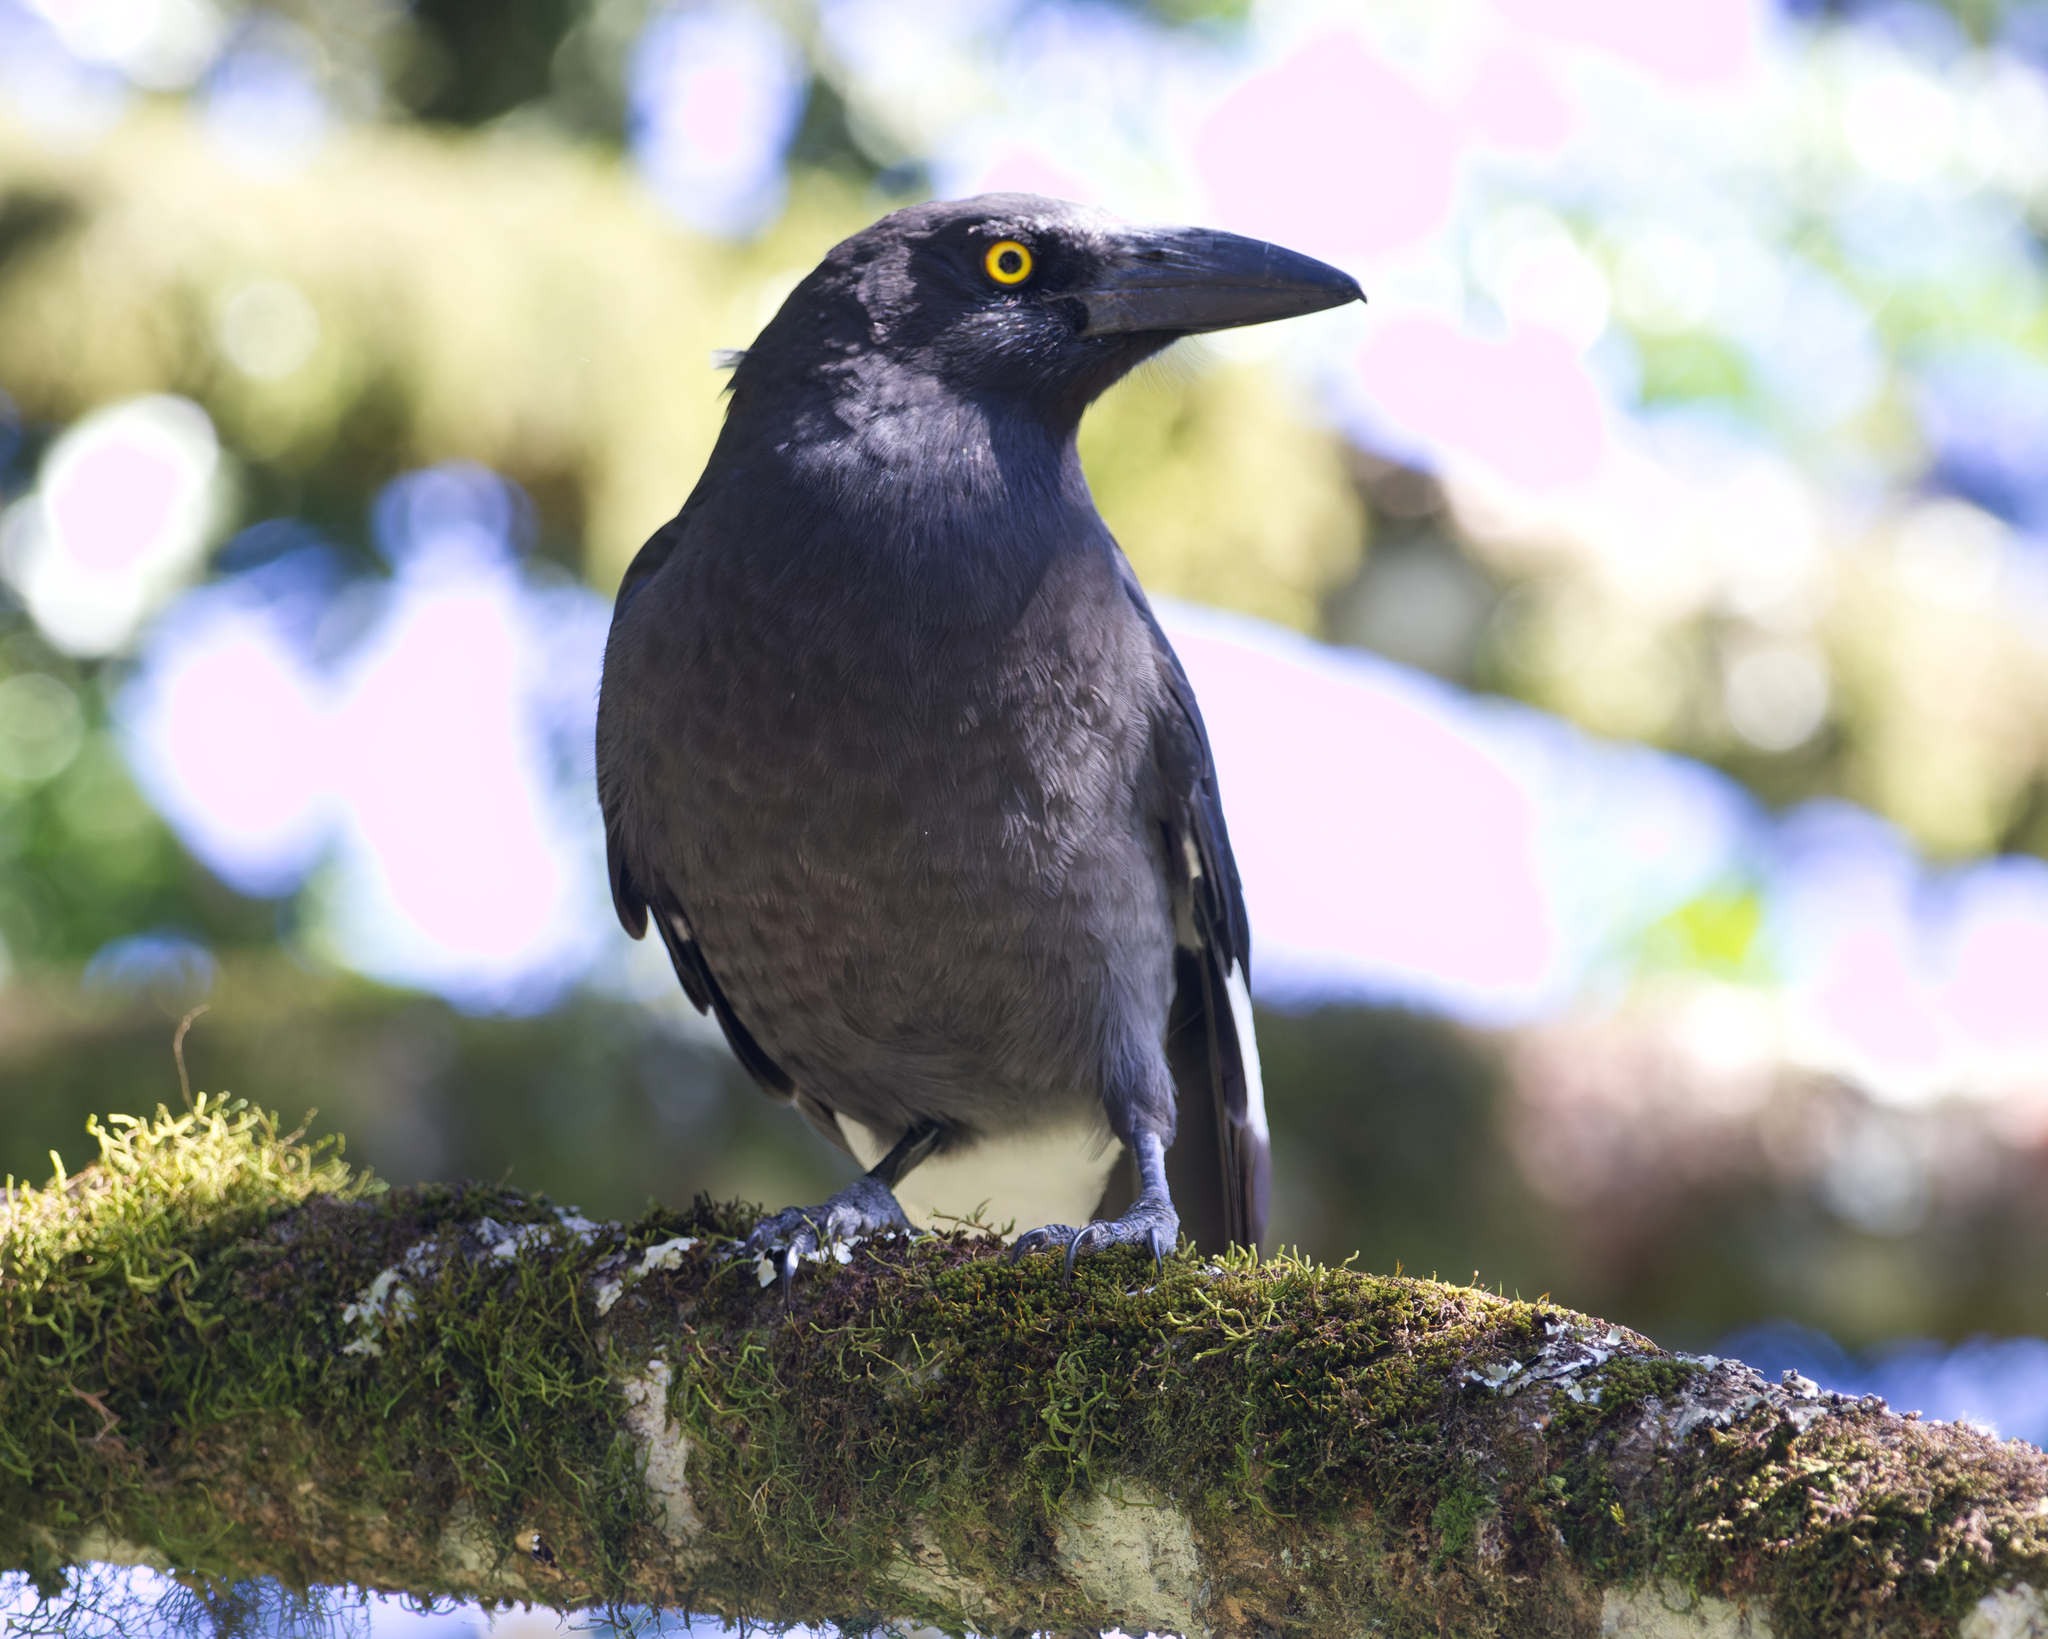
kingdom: Animalia
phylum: Chordata
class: Aves
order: Passeriformes
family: Cracticidae
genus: Strepera
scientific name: Strepera graculina
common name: Pied currawong
